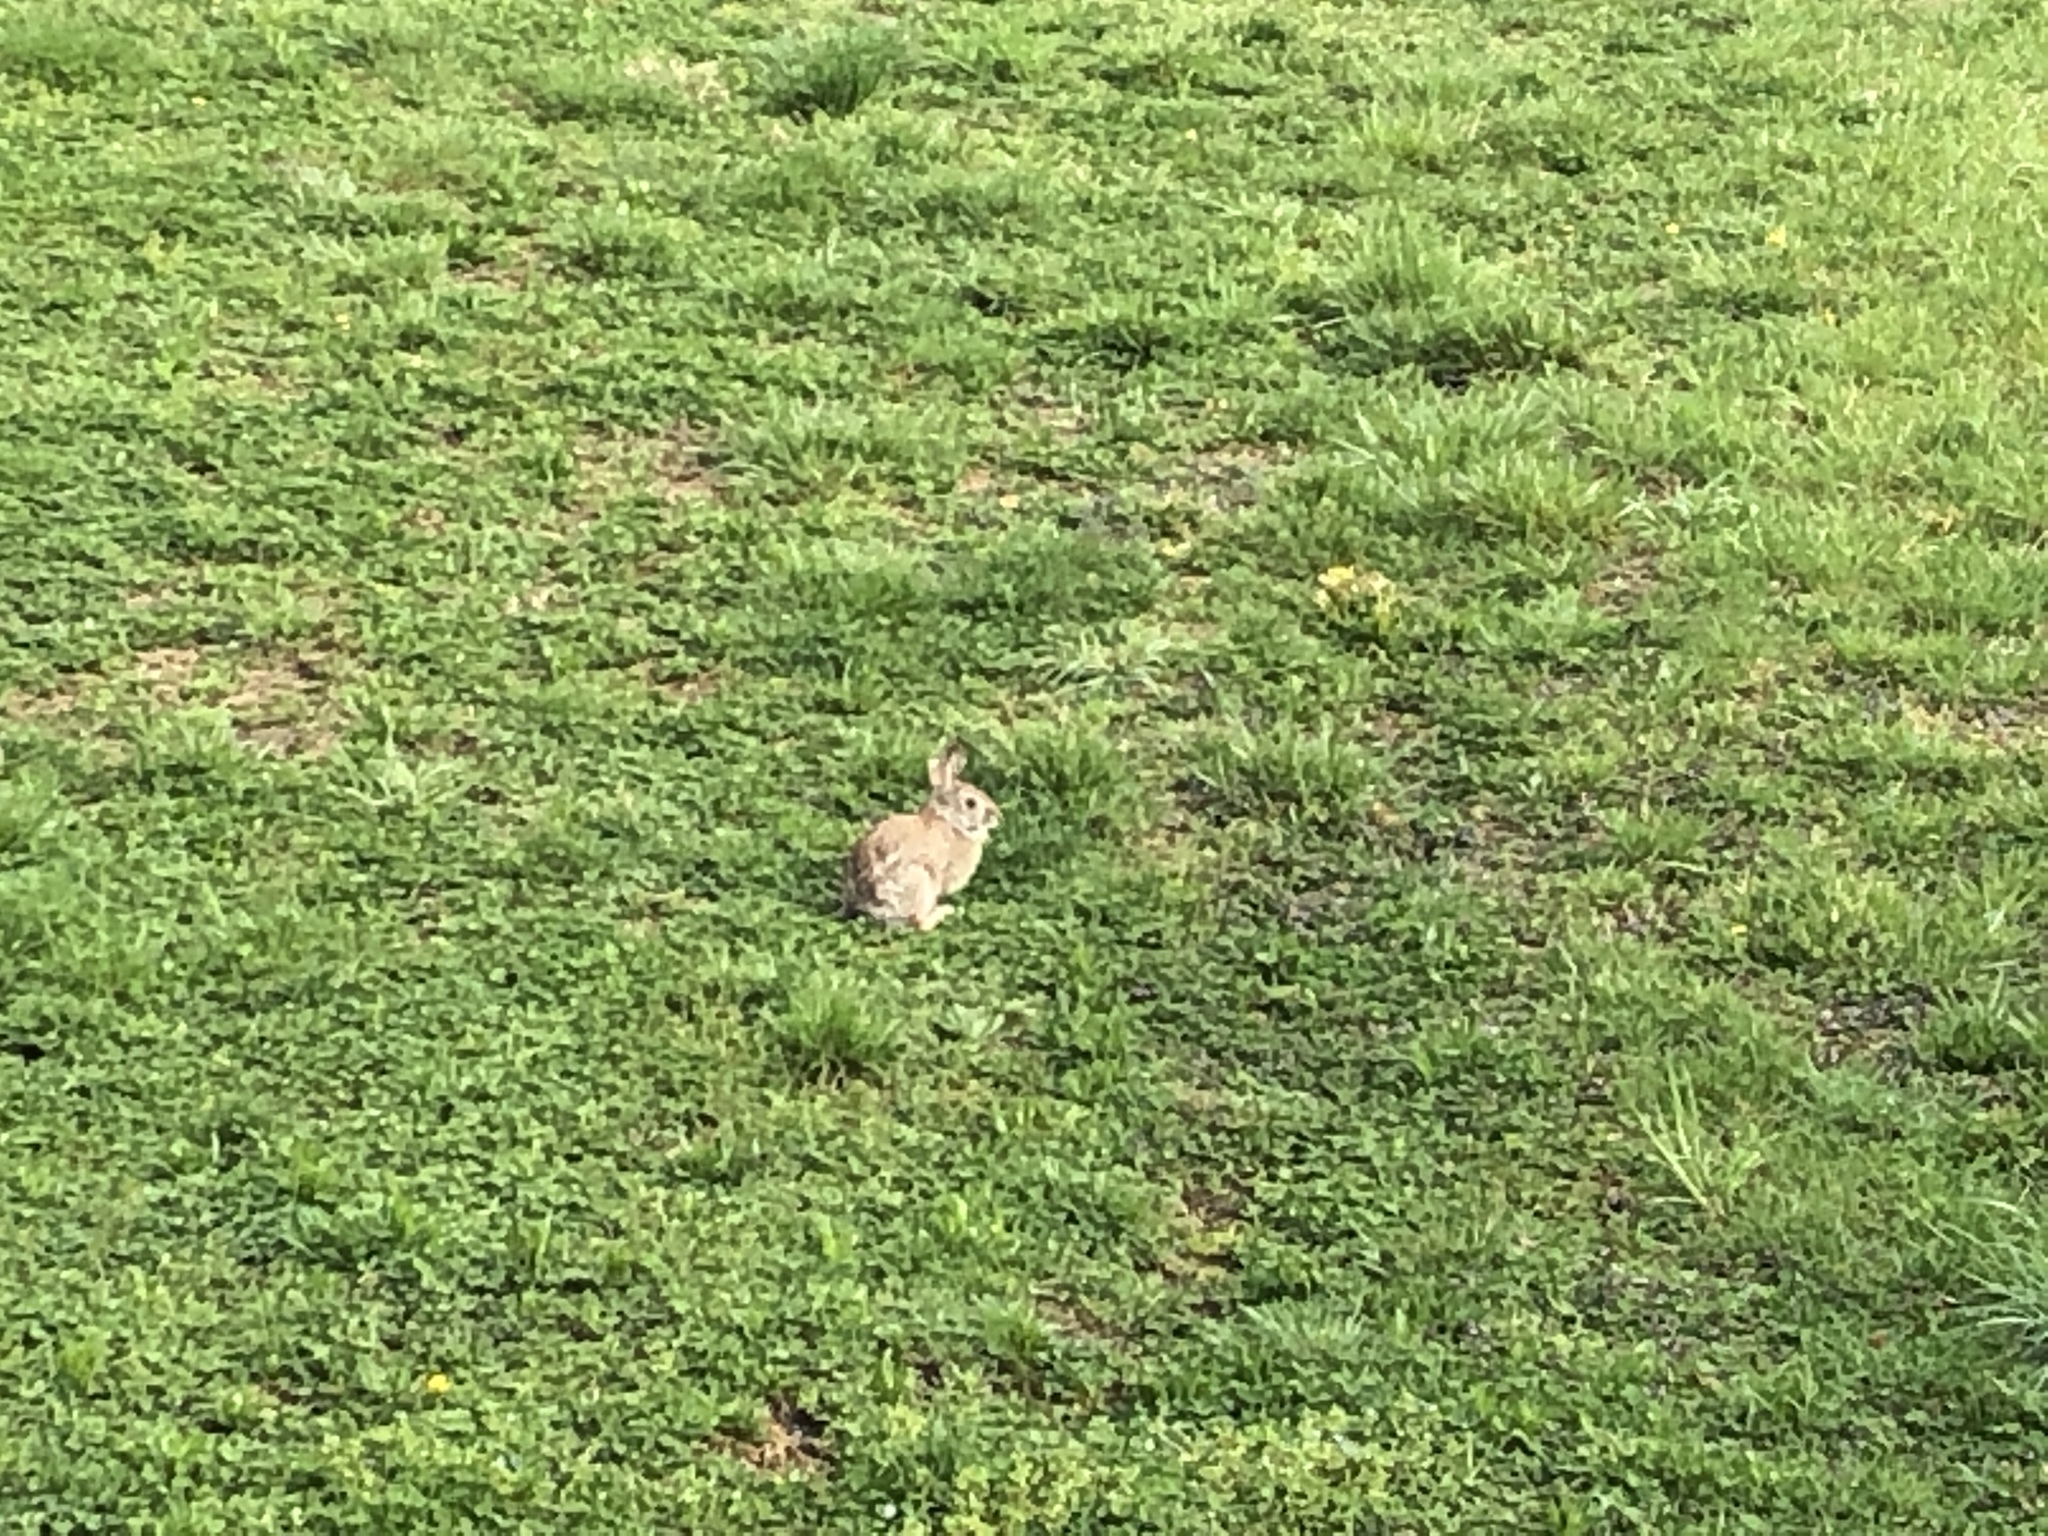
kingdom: Animalia
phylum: Chordata
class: Mammalia
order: Lagomorpha
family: Leporidae
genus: Sylvilagus
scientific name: Sylvilagus floridanus
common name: Eastern cottontail
